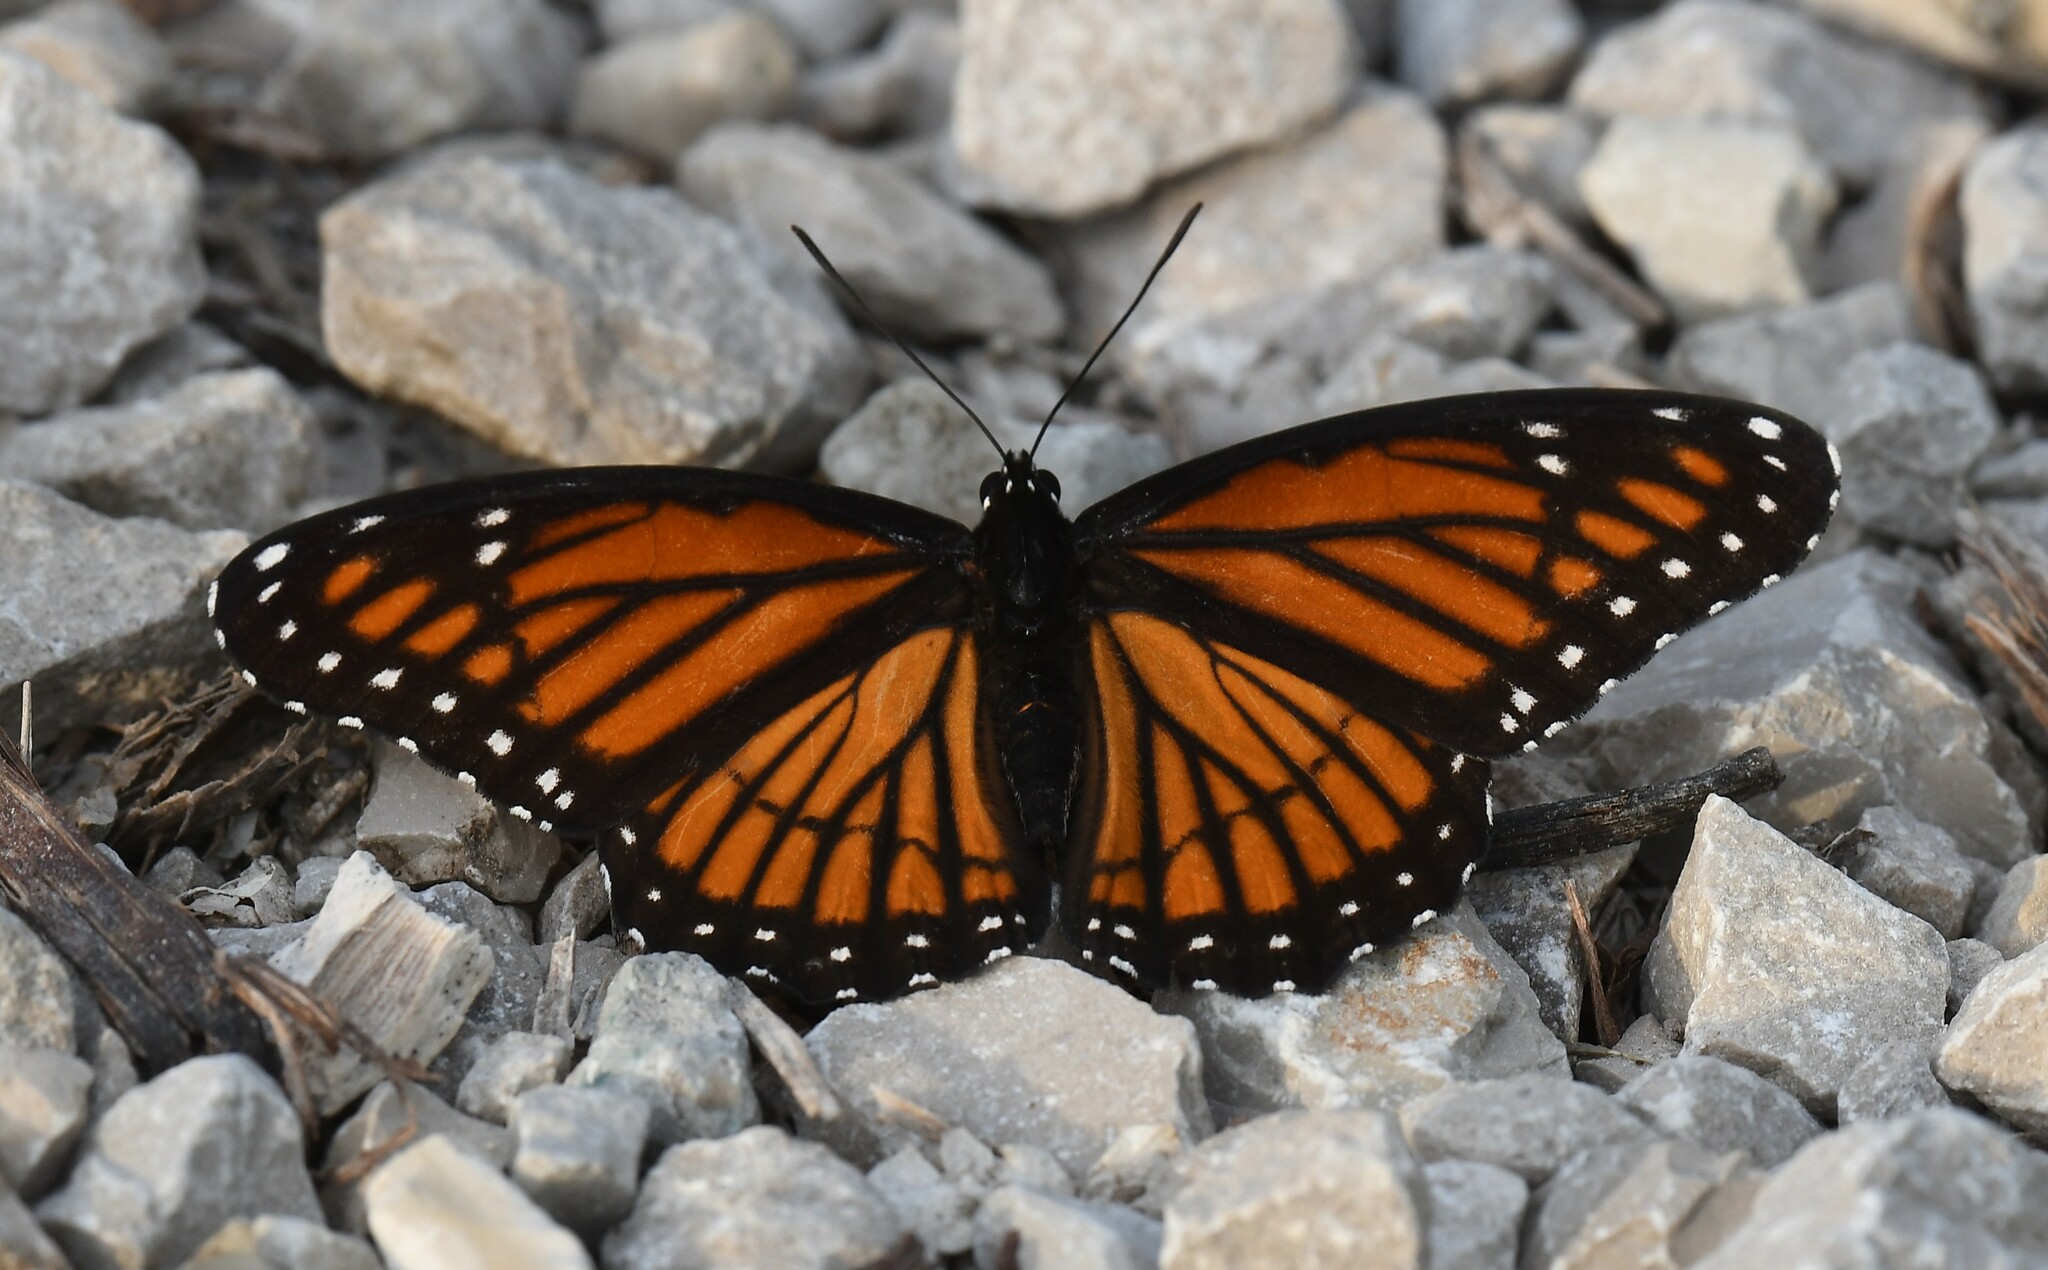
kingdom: Animalia
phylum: Arthropoda
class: Insecta
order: Lepidoptera
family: Nymphalidae
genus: Limenitis
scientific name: Limenitis archippus
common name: Viceroy
